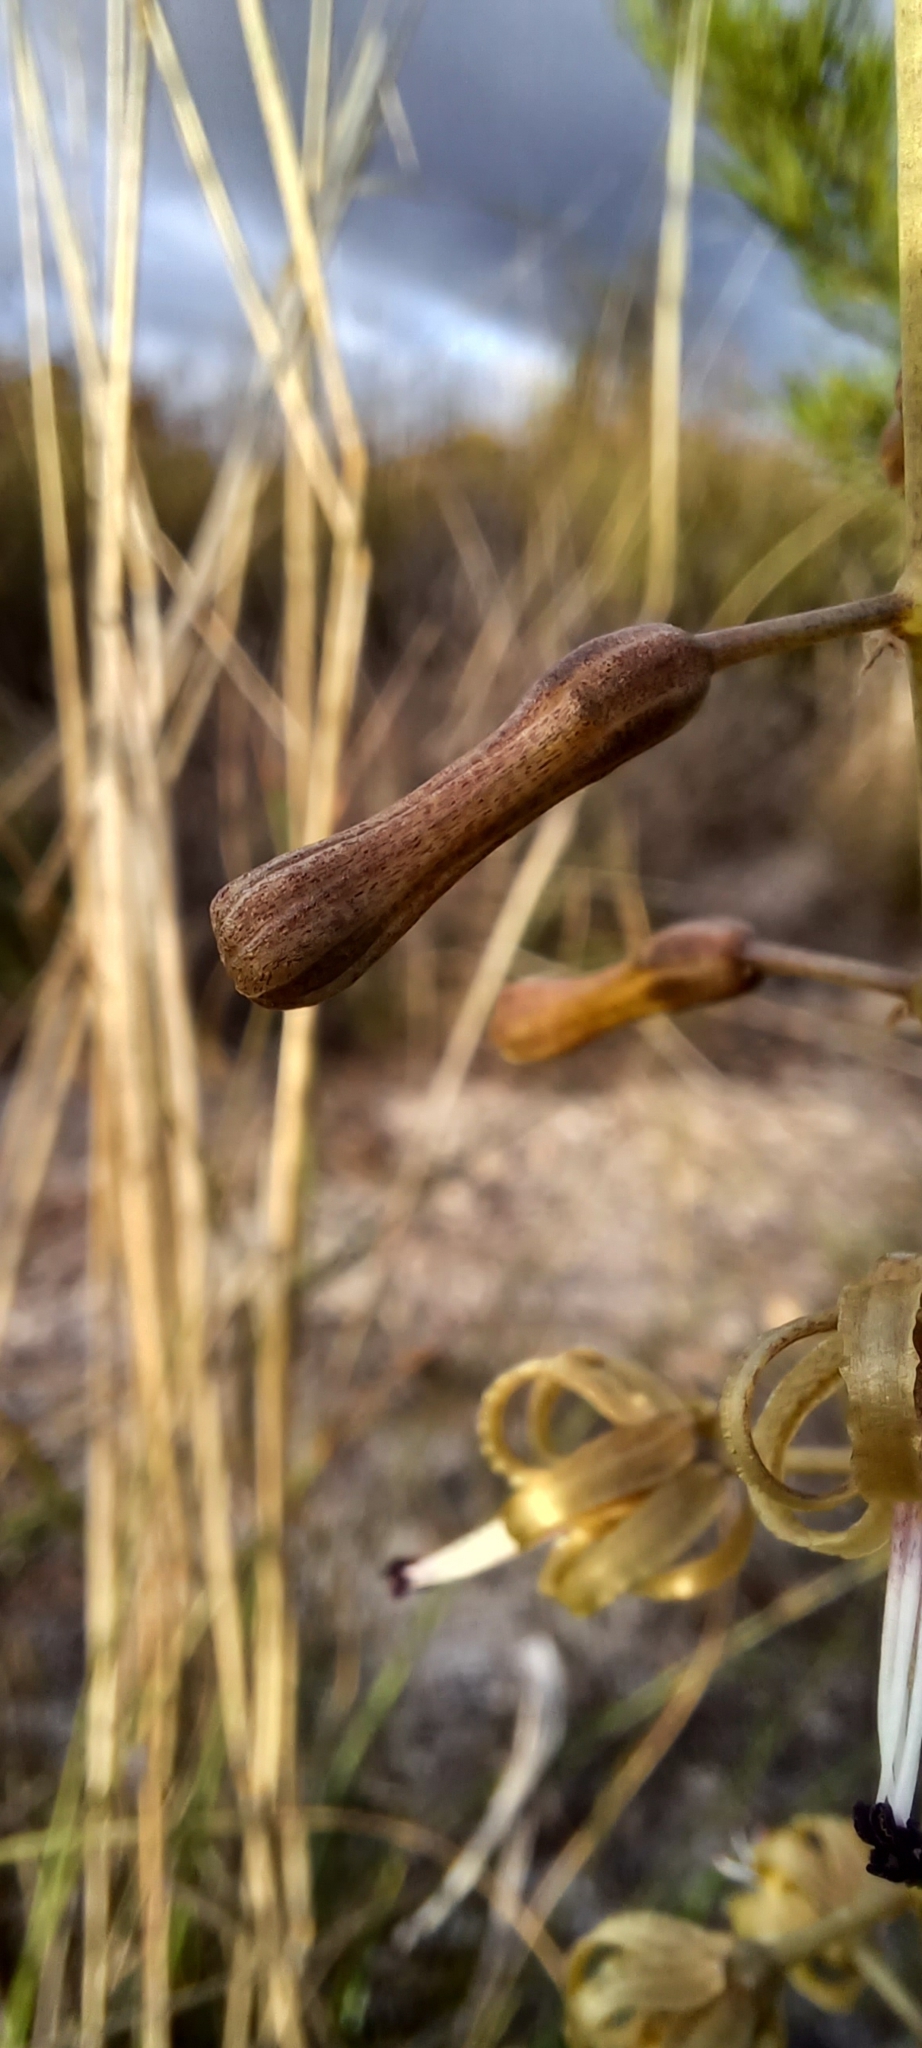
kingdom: Plantae
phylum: Tracheophyta
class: Liliopsida
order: Asparagales
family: Asparagaceae
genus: Drimia
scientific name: Drimia elata
